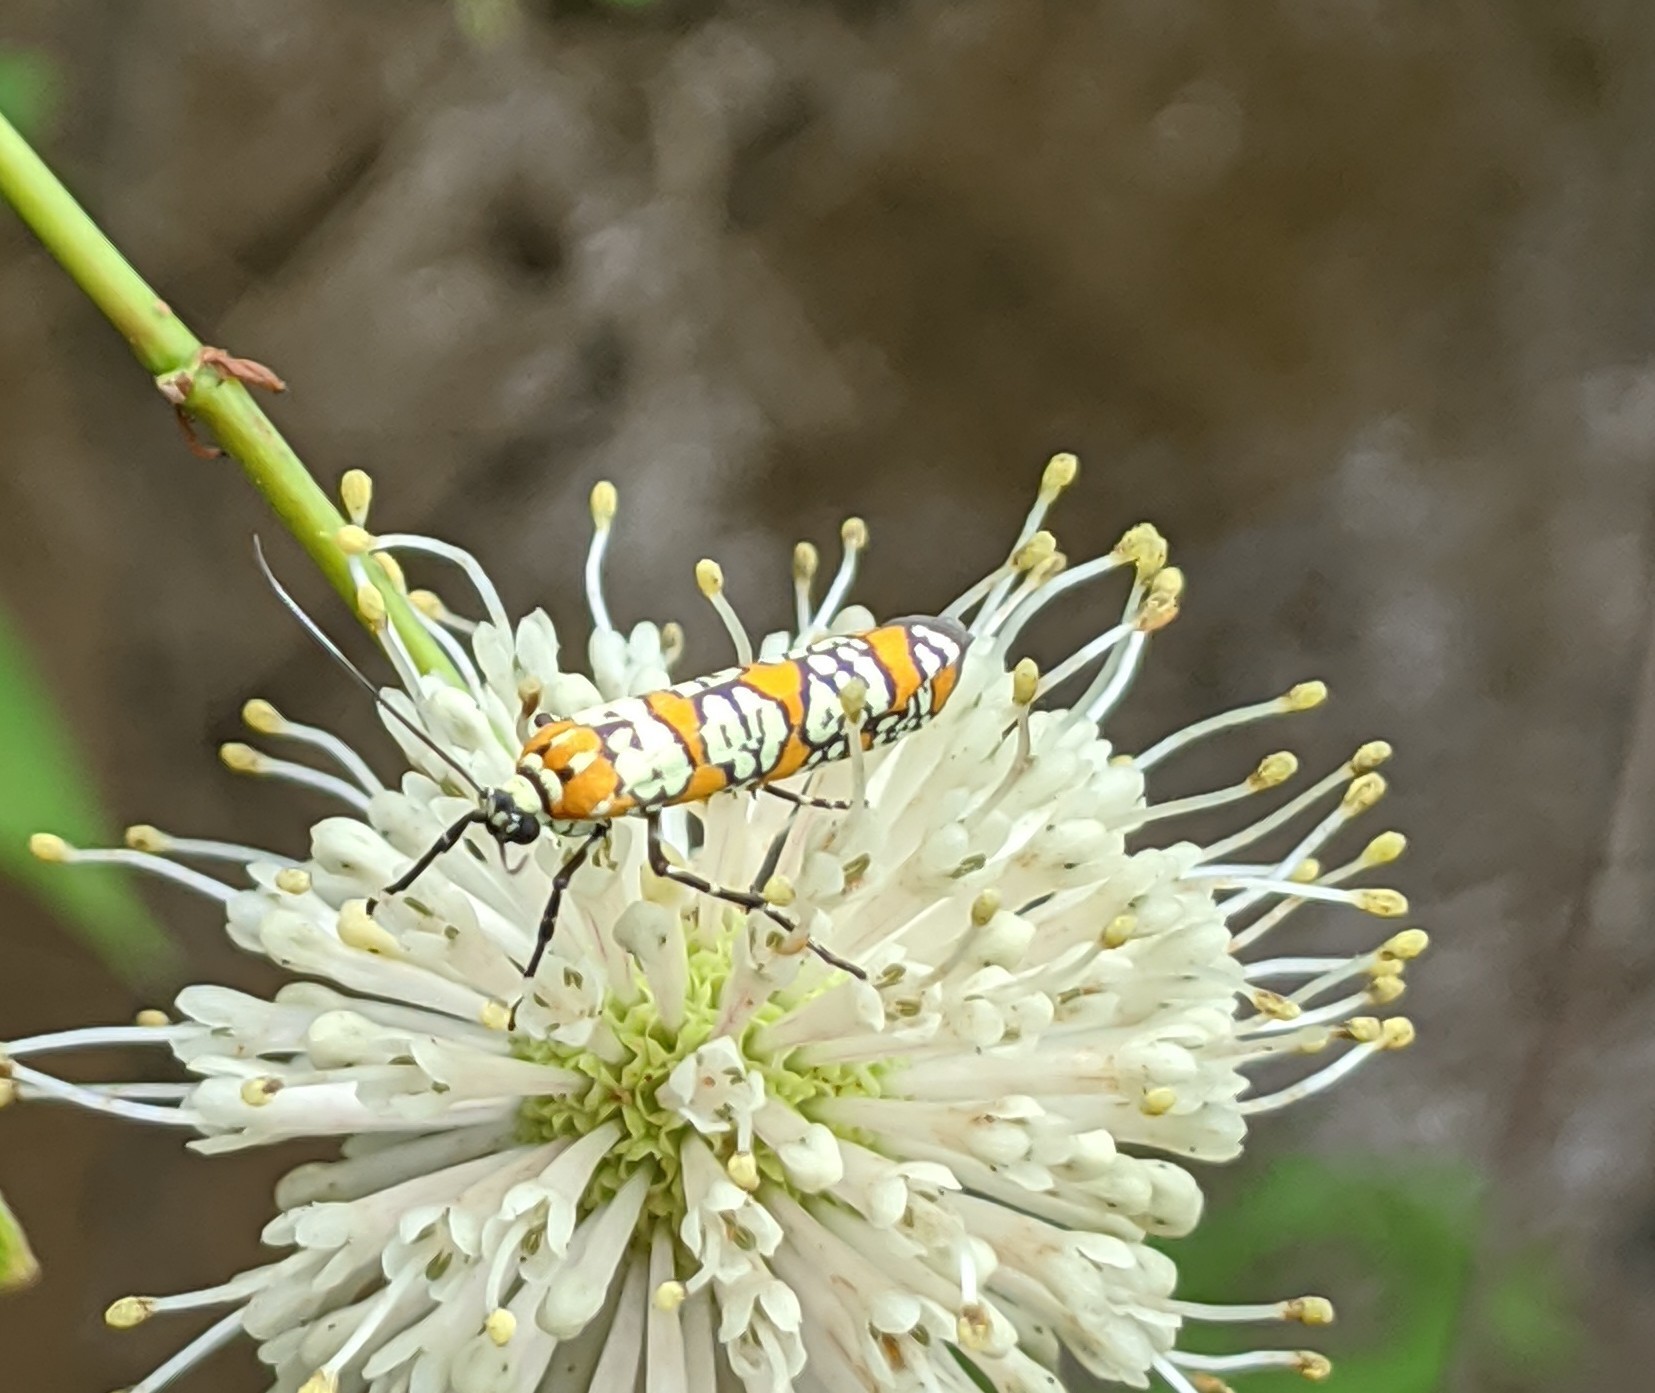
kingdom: Animalia
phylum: Arthropoda
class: Insecta
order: Lepidoptera
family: Attevidae
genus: Atteva
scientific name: Atteva punctella
